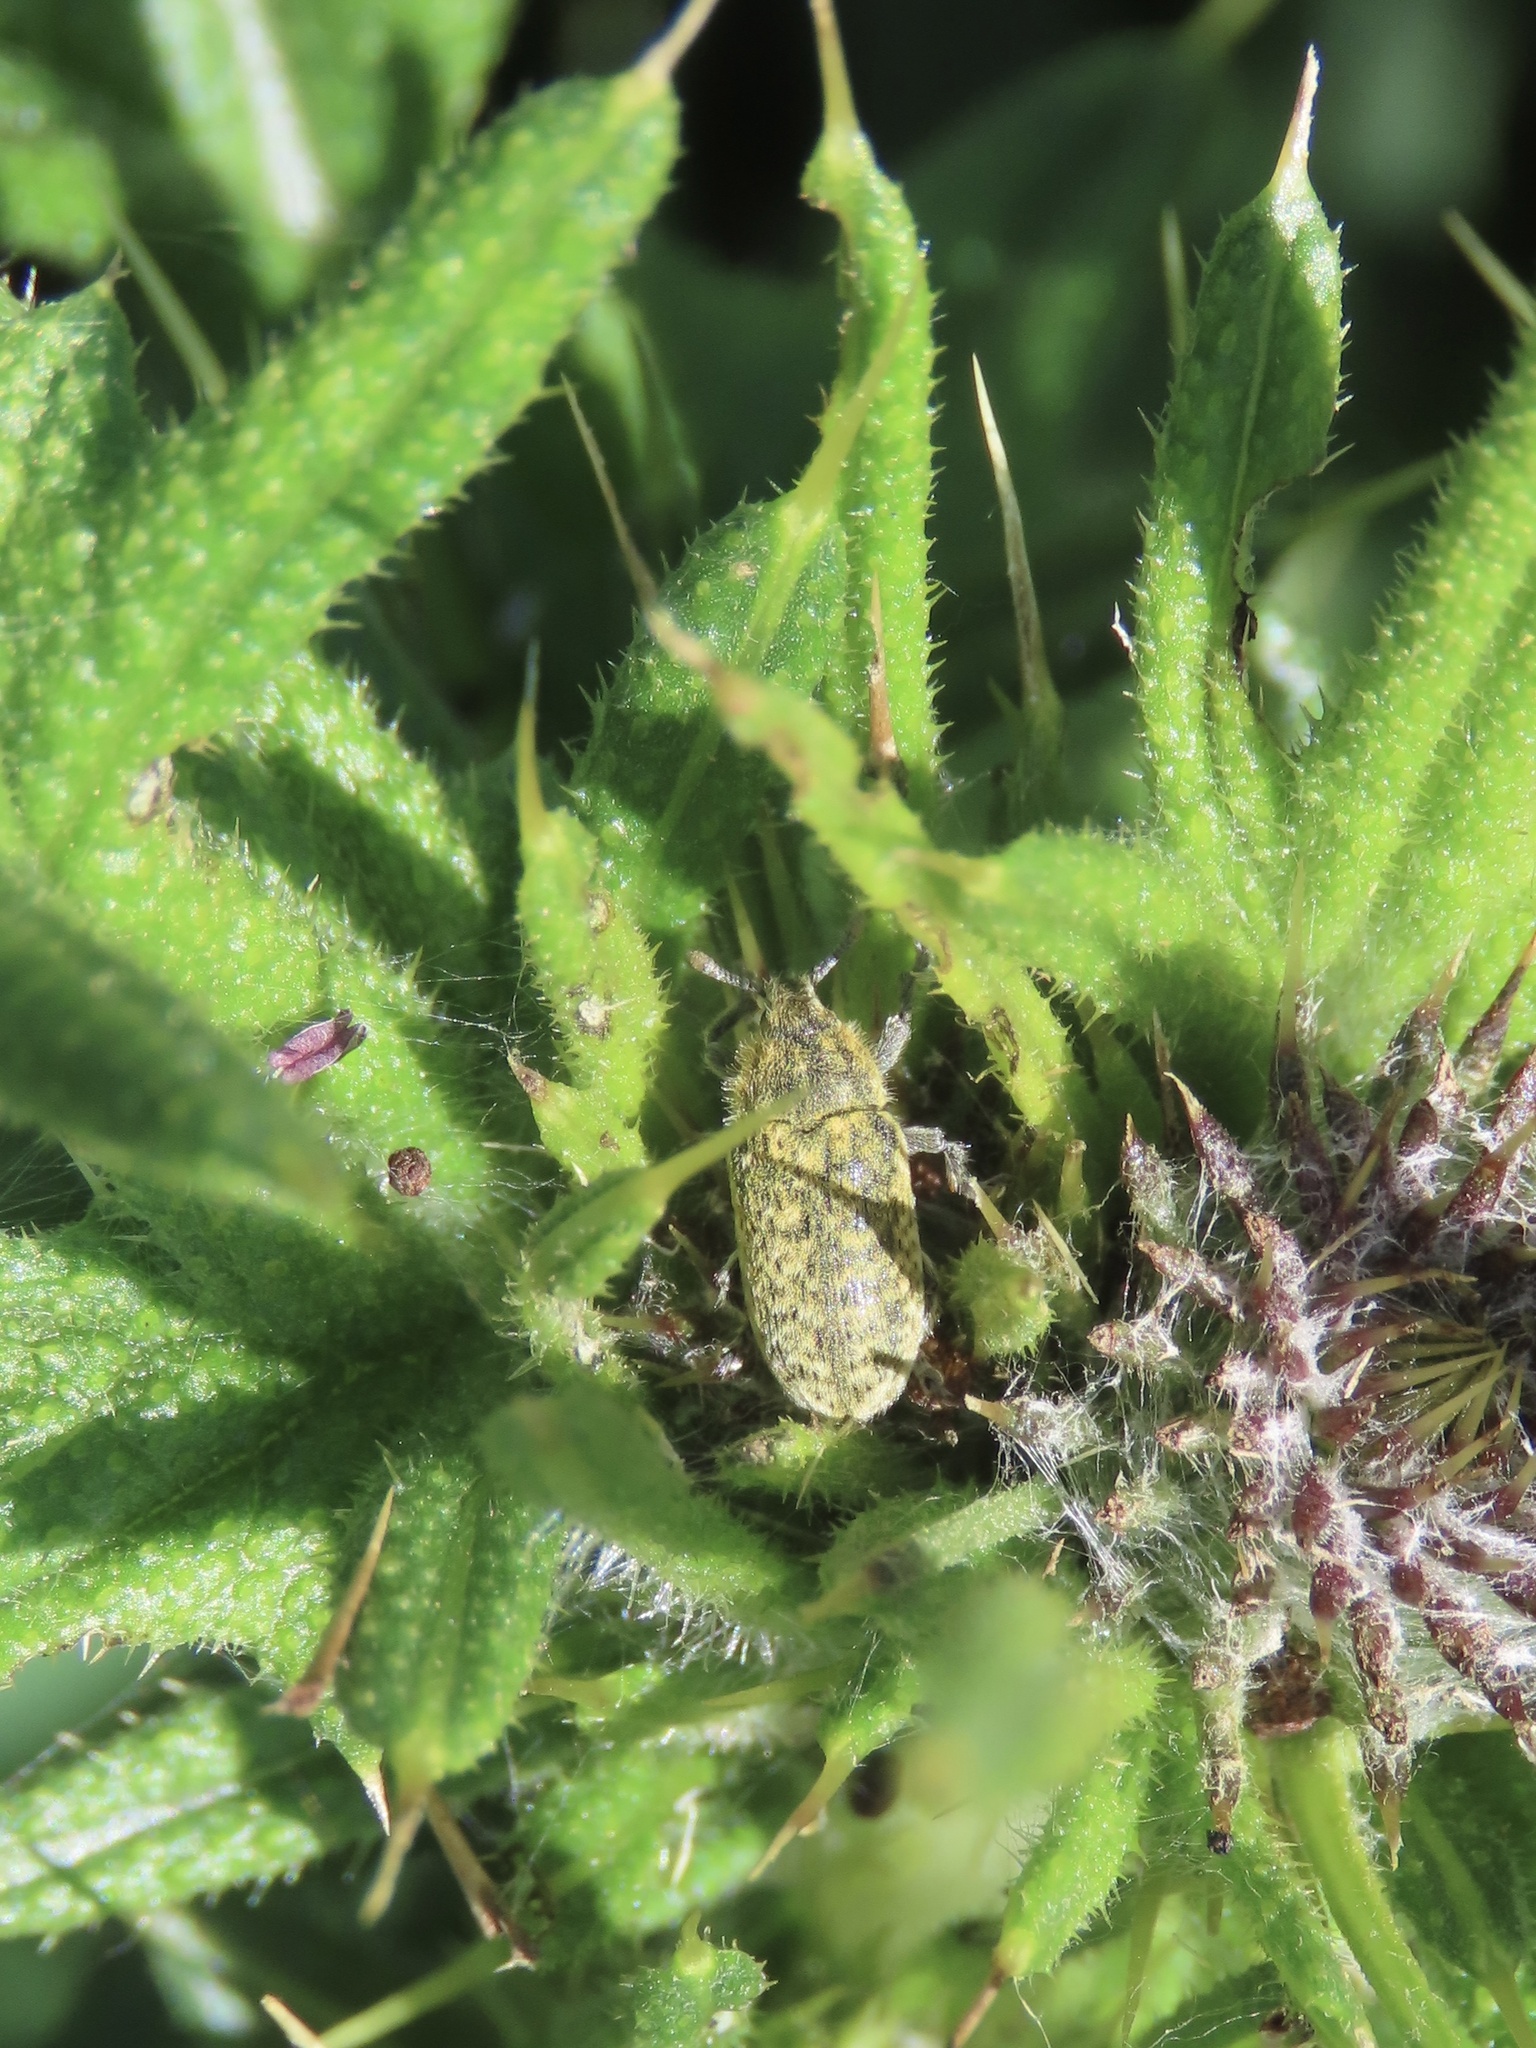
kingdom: Animalia
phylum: Arthropoda
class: Insecta
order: Coleoptera
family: Curculionidae
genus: Rhinocyllus
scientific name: Rhinocyllus conicus
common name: Weevil
